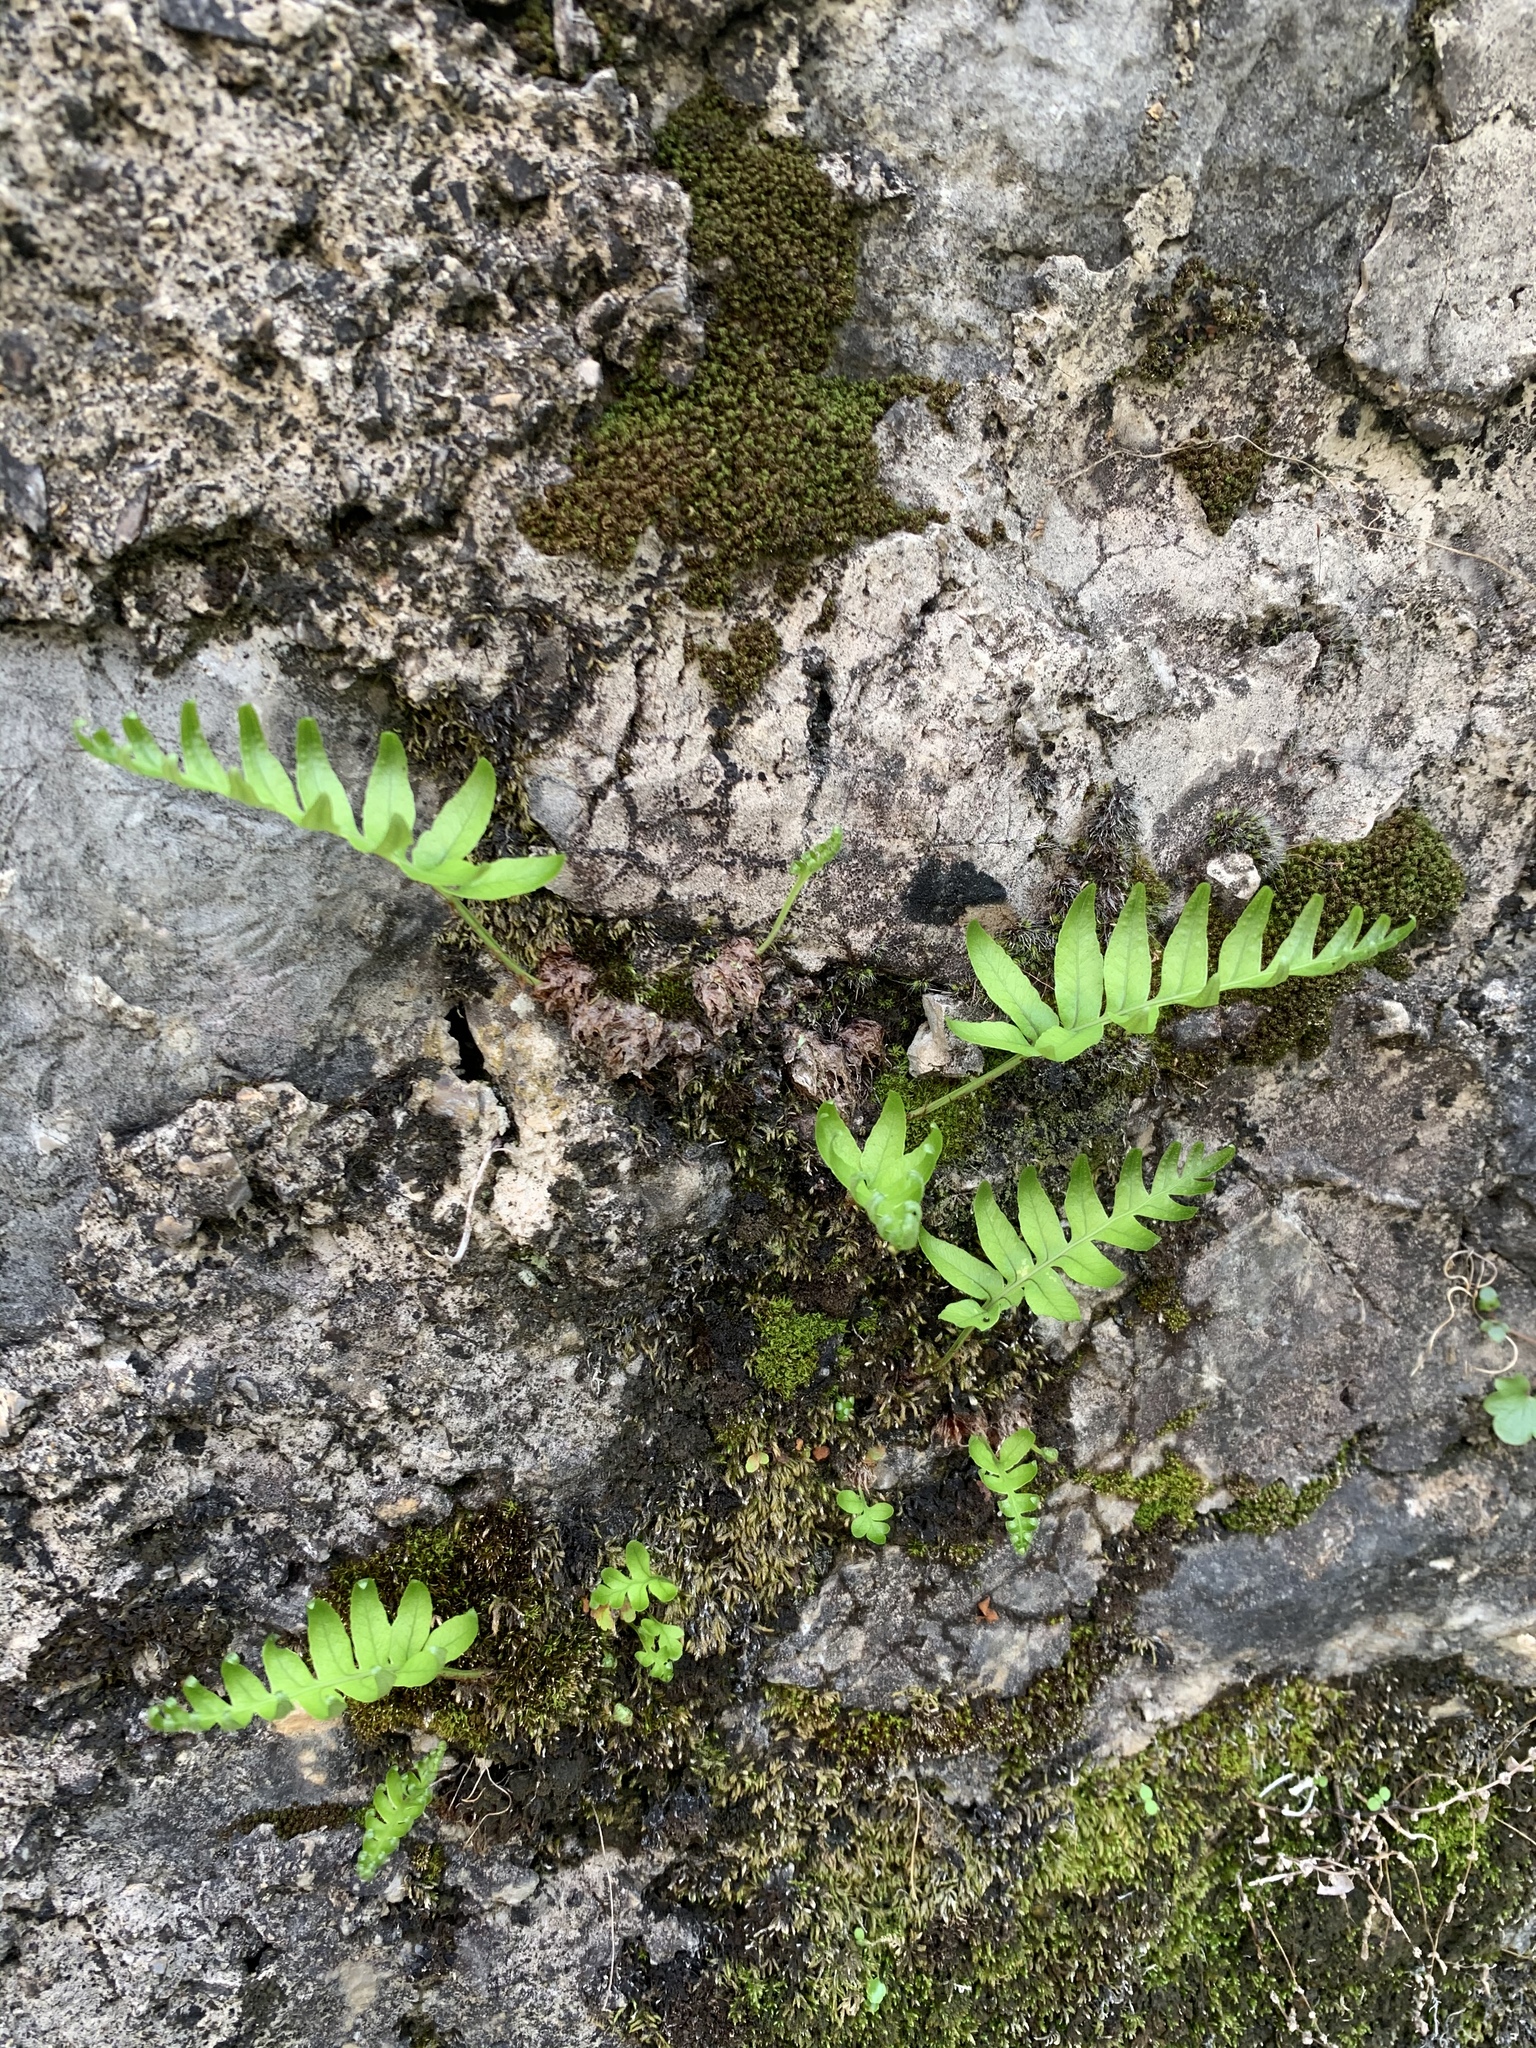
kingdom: Plantae
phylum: Tracheophyta
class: Polypodiopsida
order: Polypodiales
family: Polypodiaceae
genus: Polypodium
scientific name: Polypodium cambricum
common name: Southern polypody
